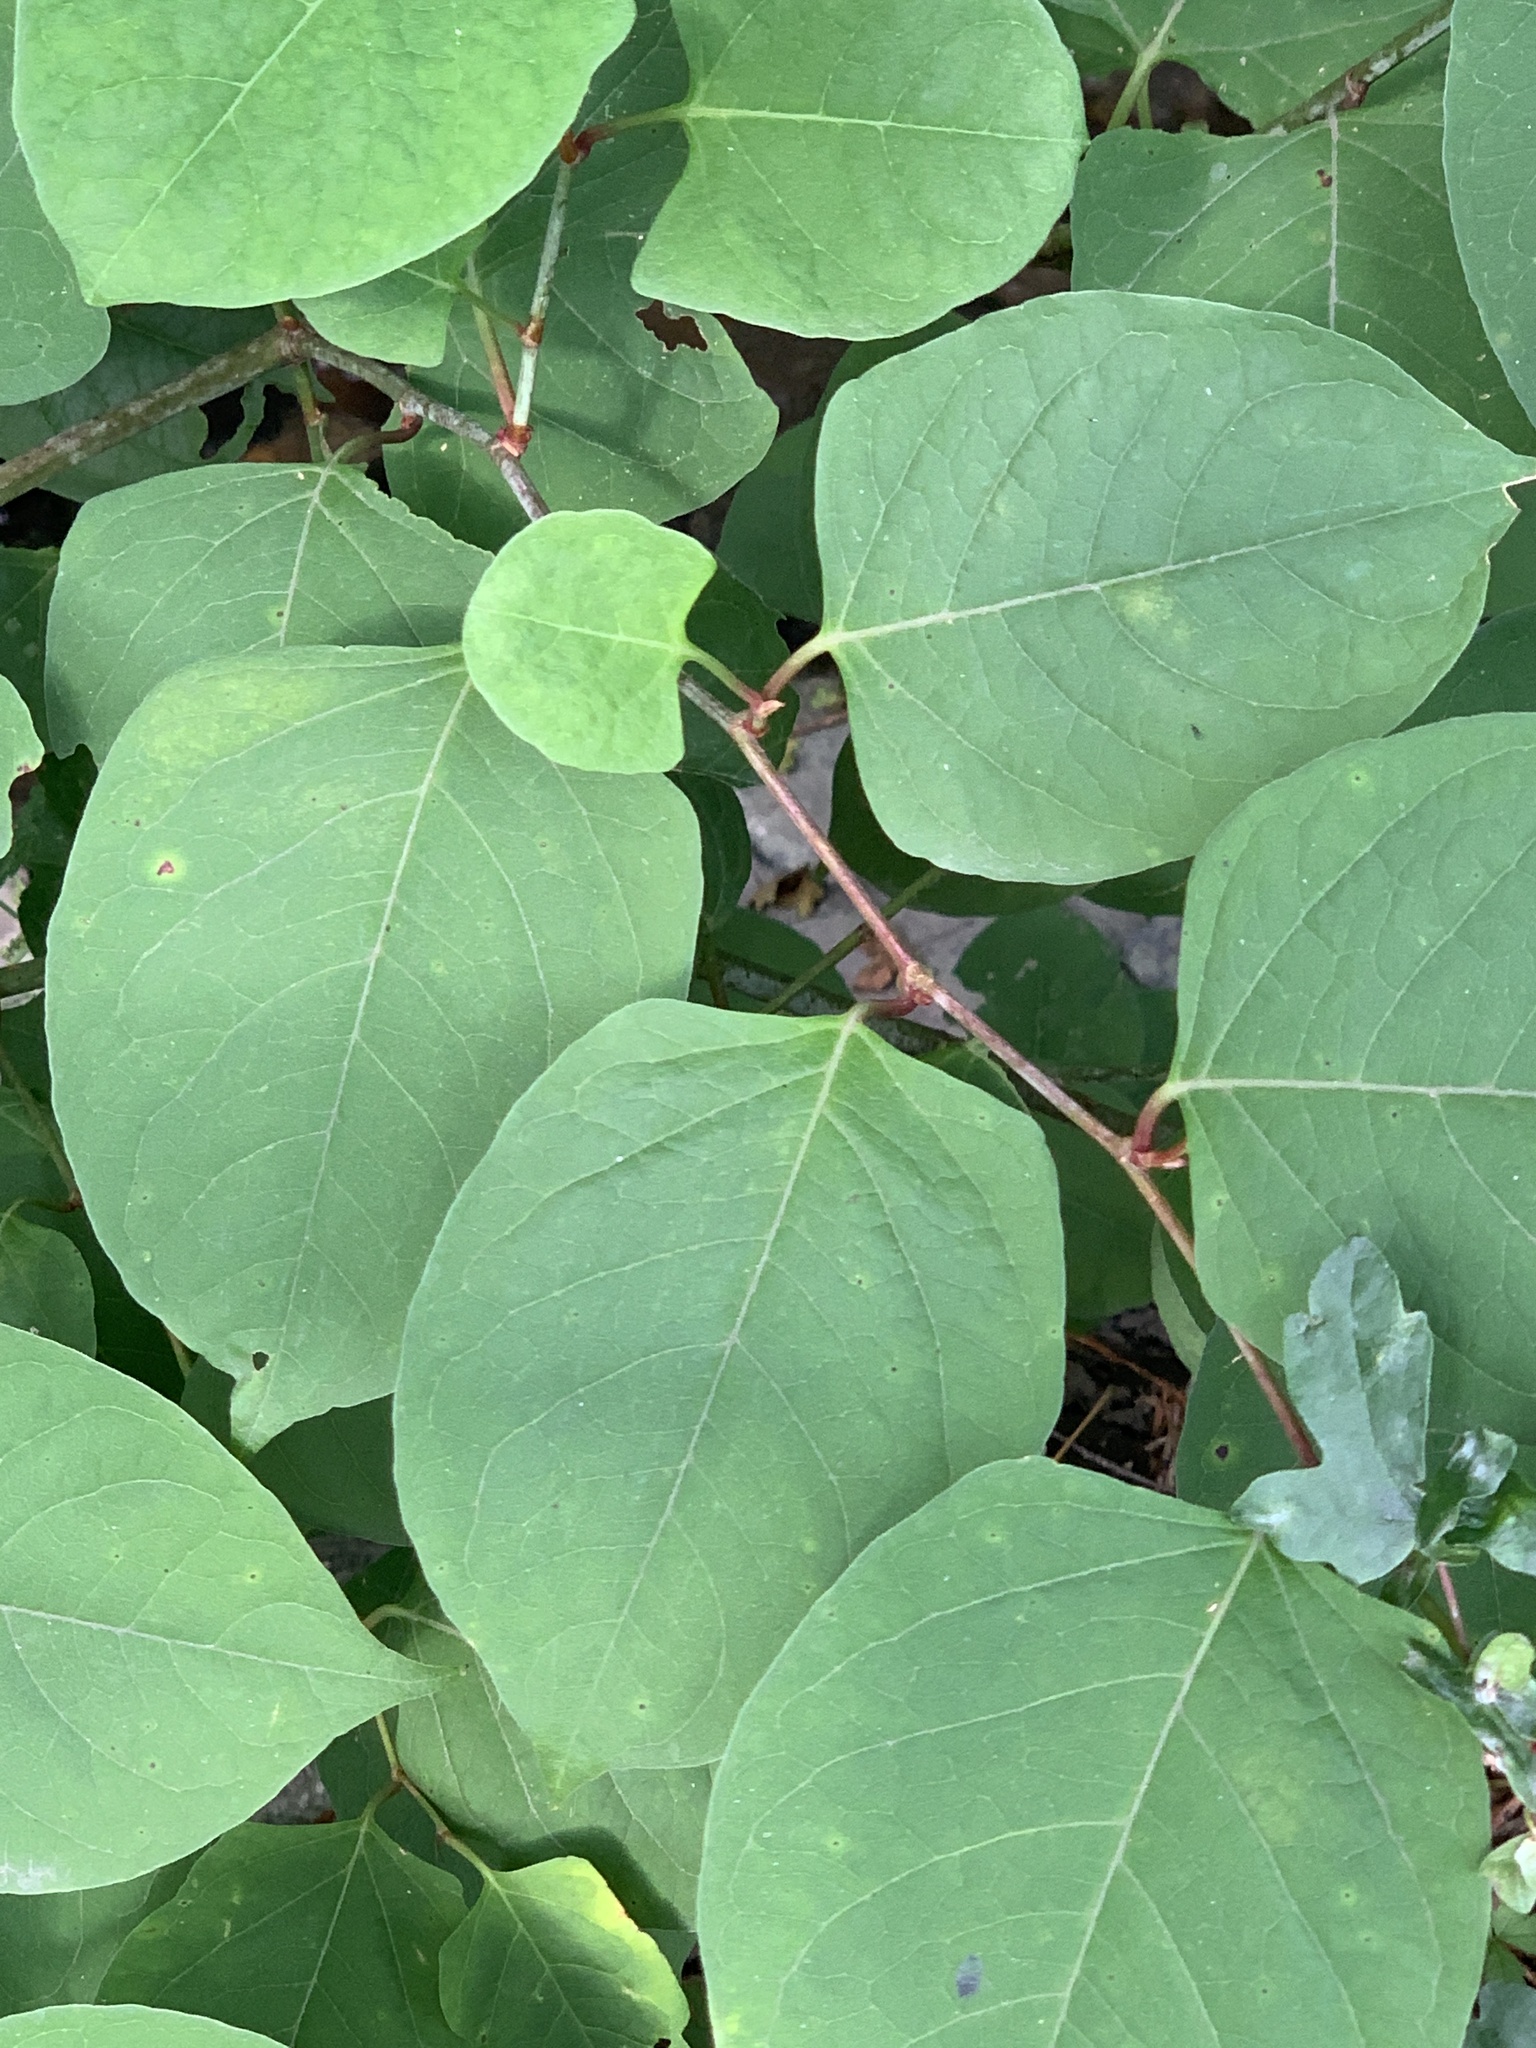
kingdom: Plantae
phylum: Tracheophyta
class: Magnoliopsida
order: Caryophyllales
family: Polygonaceae
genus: Reynoutria
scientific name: Reynoutria japonica
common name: Japanese knotweed
